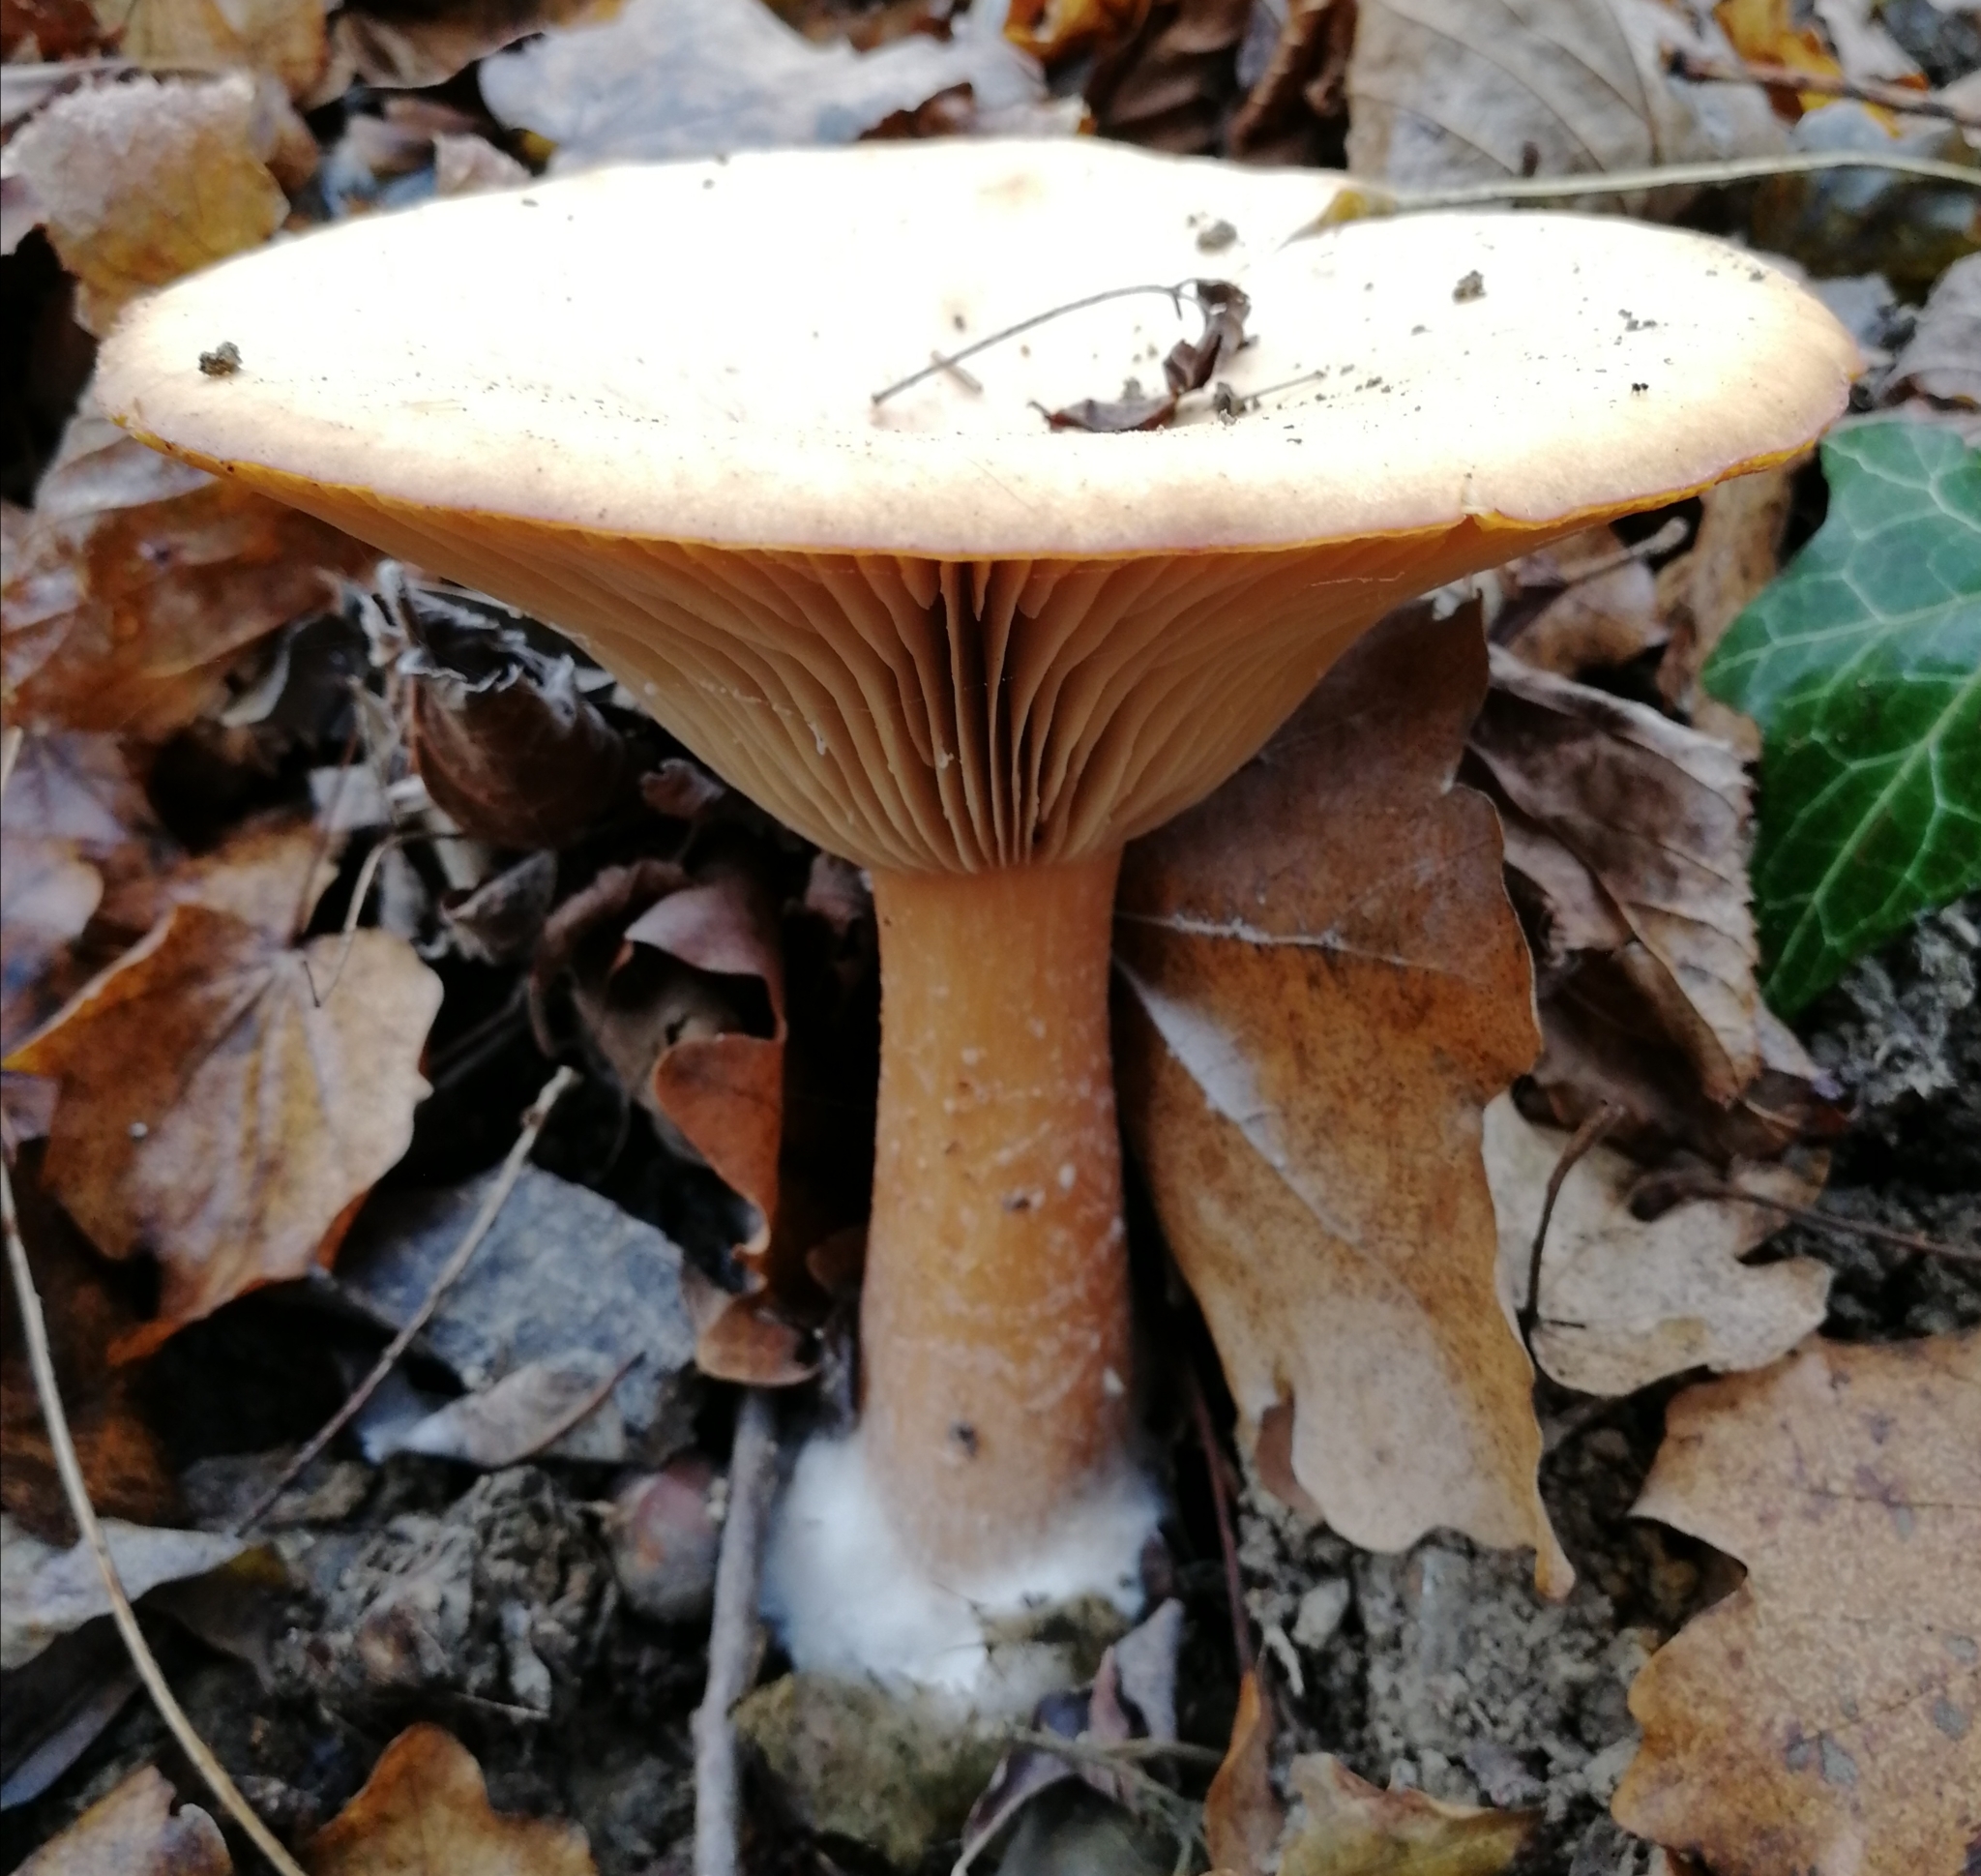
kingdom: Fungi
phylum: Basidiomycota
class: Agaricomycetes
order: Agaricales
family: Tricholomataceae
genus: Infundibulicybe
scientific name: Infundibulicybe geotropa
